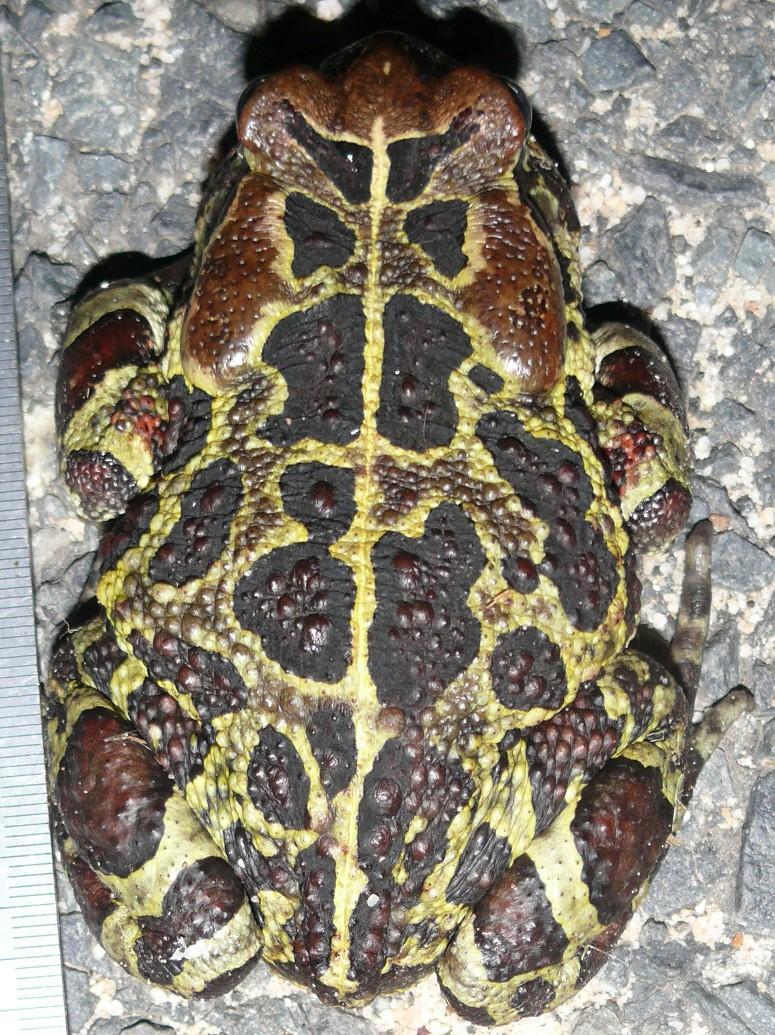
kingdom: Animalia
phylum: Chordata
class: Amphibia
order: Anura
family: Bufonidae
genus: Sclerophrys
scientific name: Sclerophrys pantherina
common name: Panther toad
